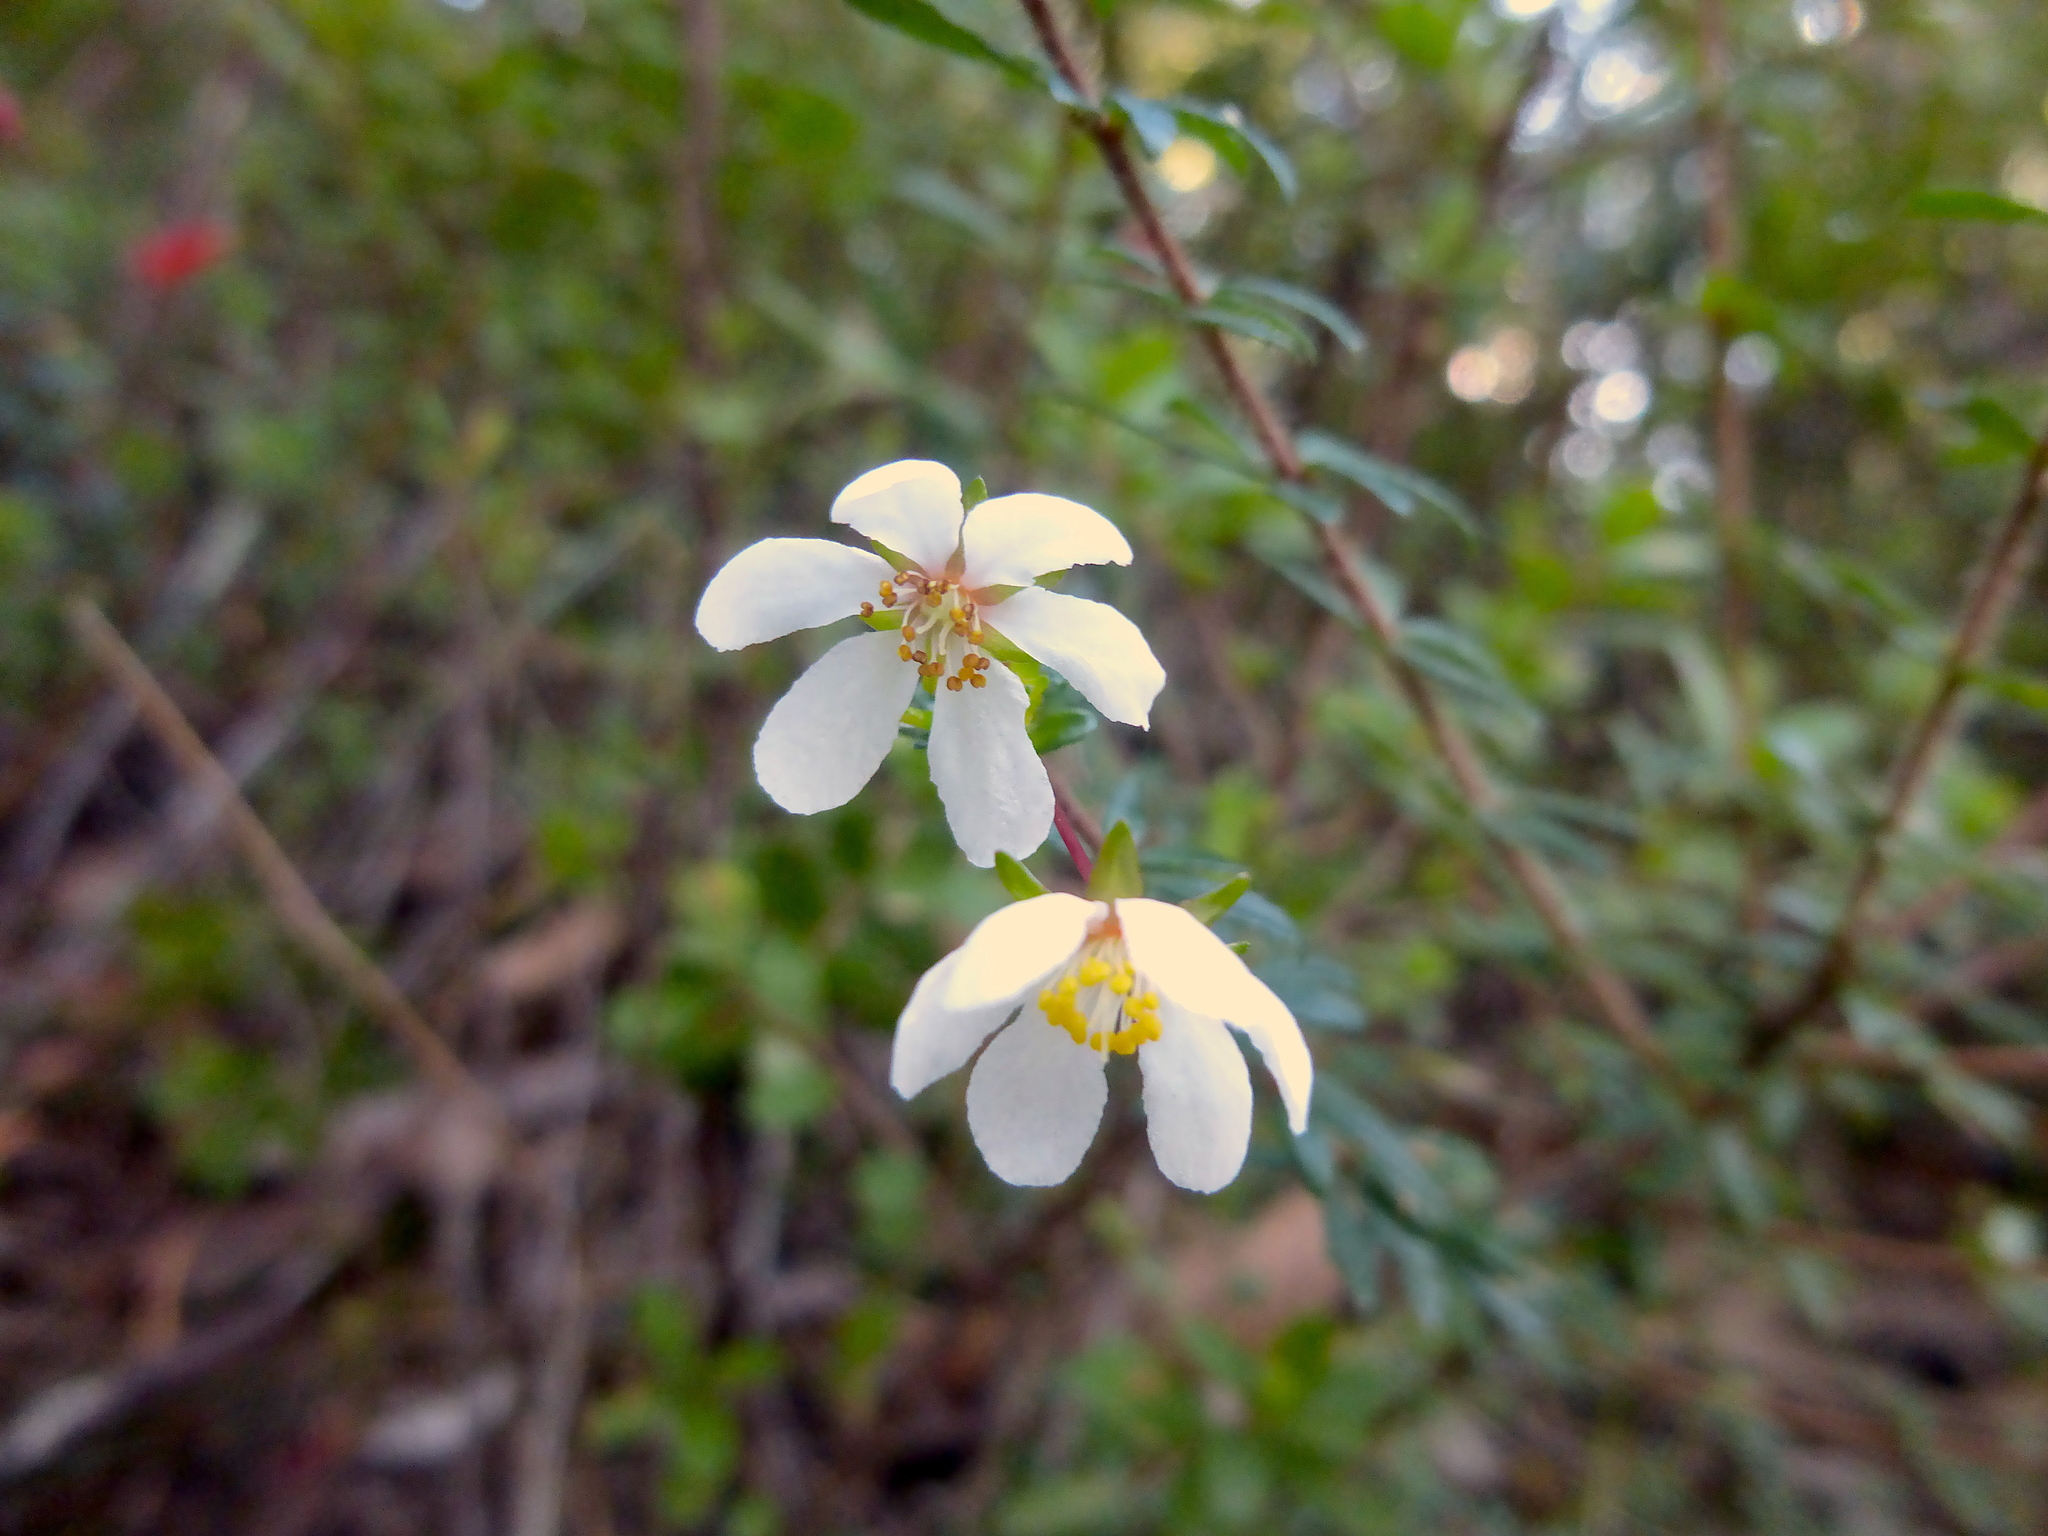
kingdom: Plantae
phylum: Tracheophyta
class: Magnoliopsida
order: Oxalidales
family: Cunoniaceae
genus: Bauera
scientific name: Bauera rubioides
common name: River-rose
